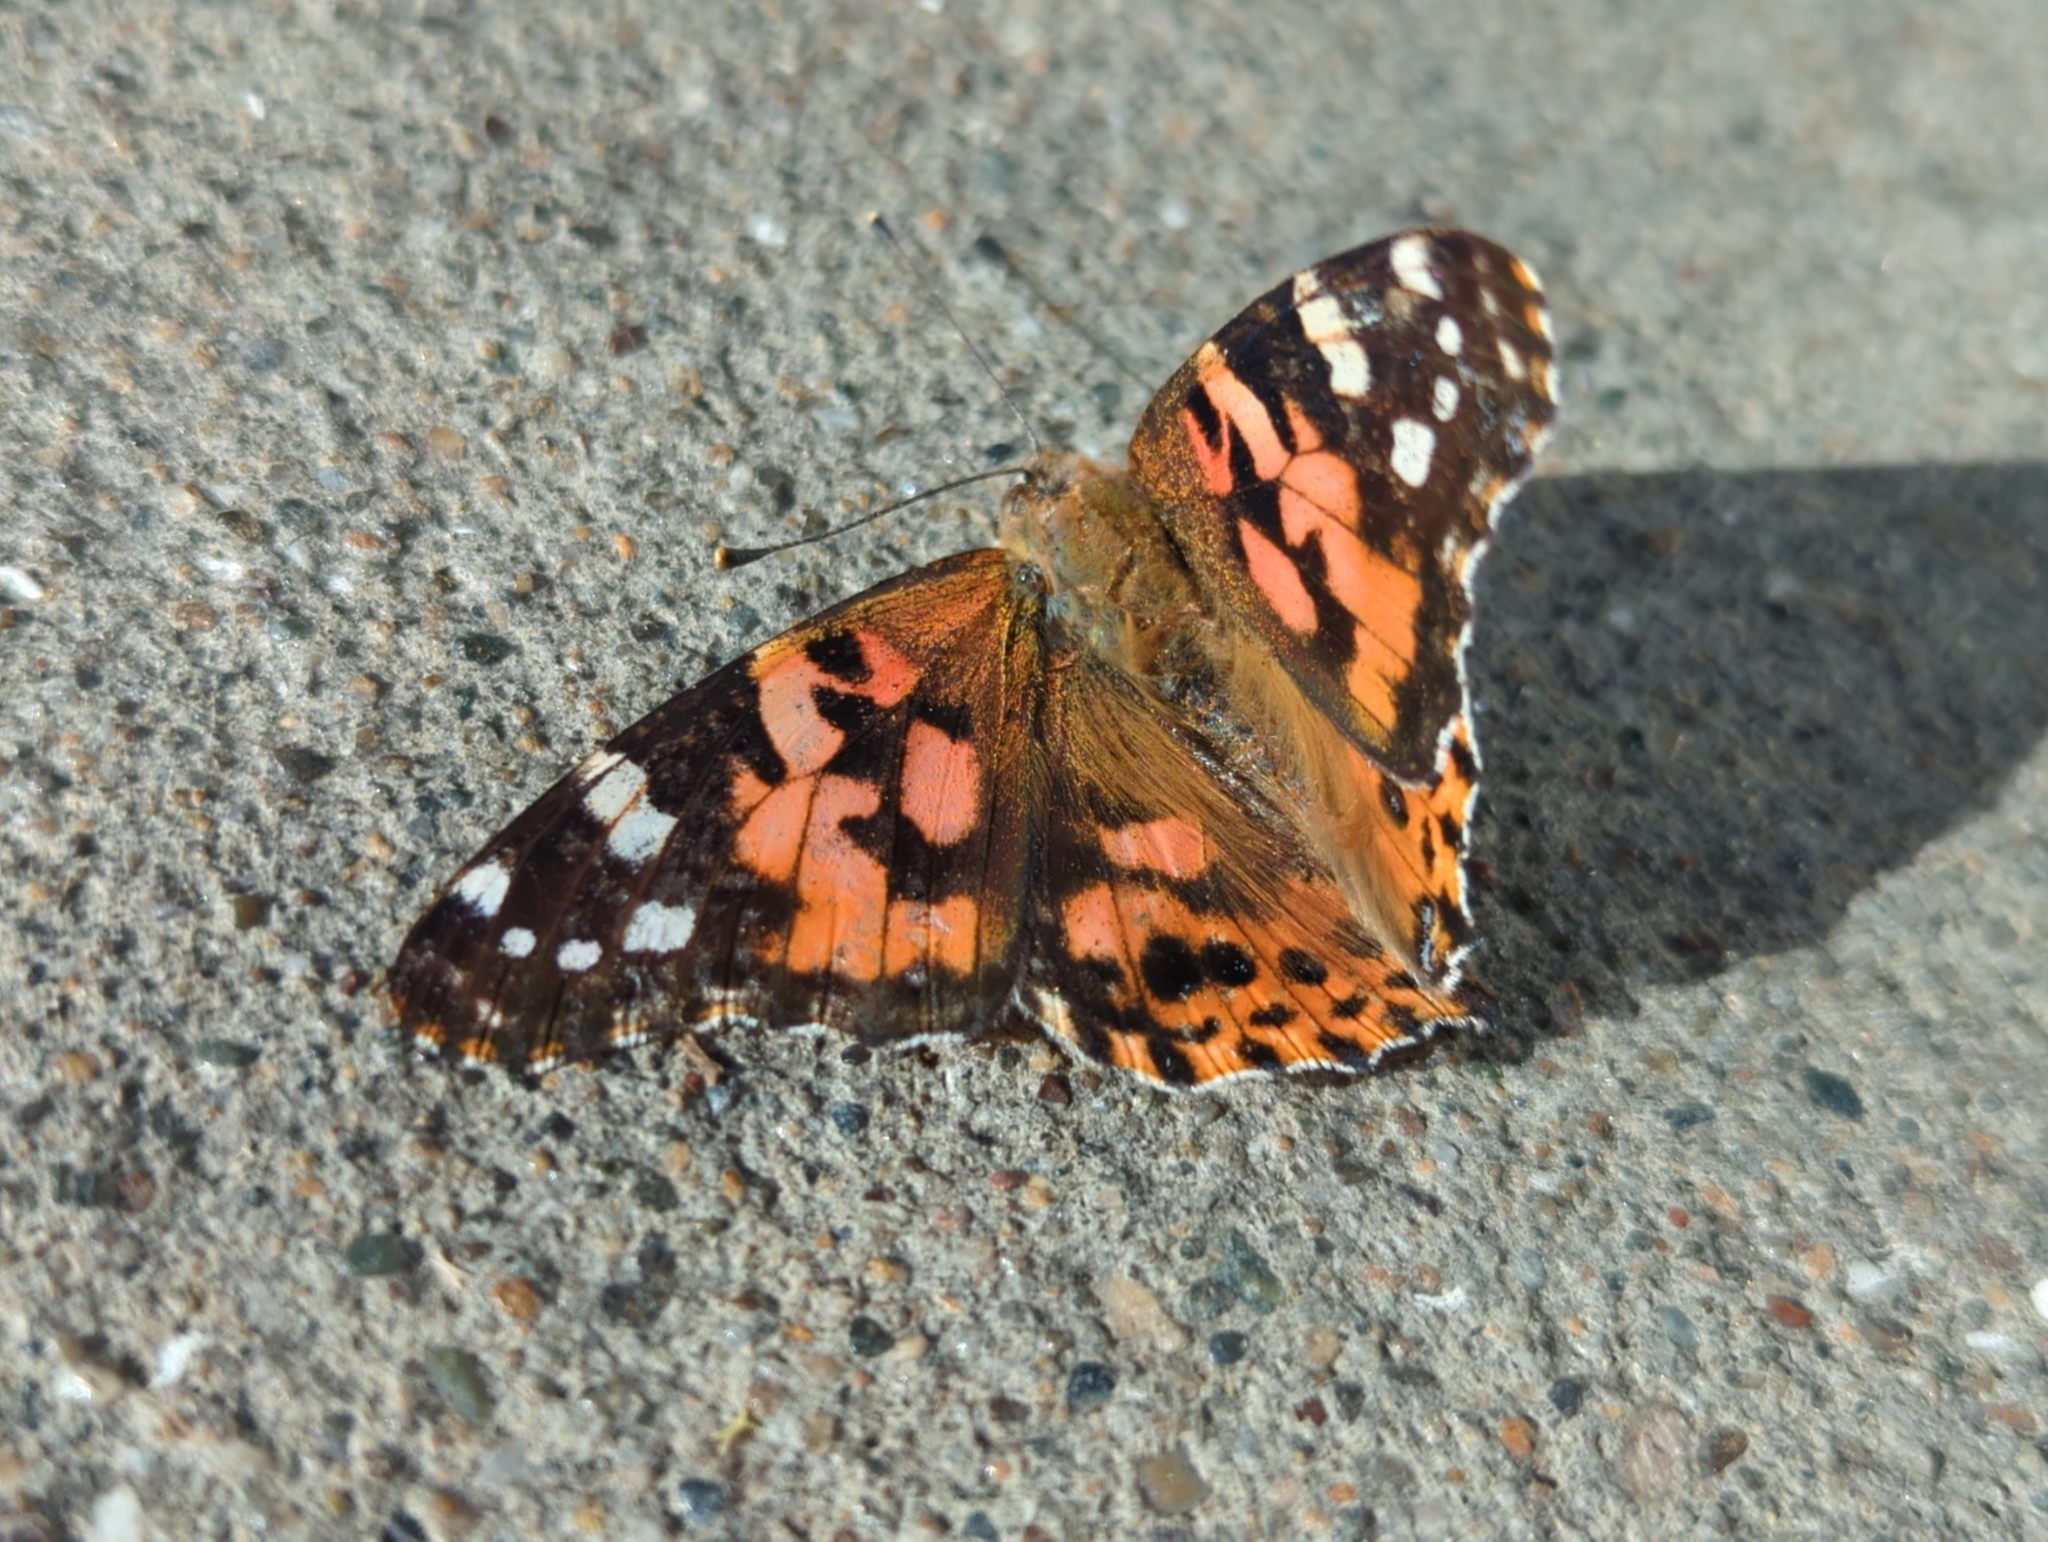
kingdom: Animalia
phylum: Arthropoda
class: Insecta
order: Lepidoptera
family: Nymphalidae
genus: Vanessa
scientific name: Vanessa cardui
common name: Painted lady
